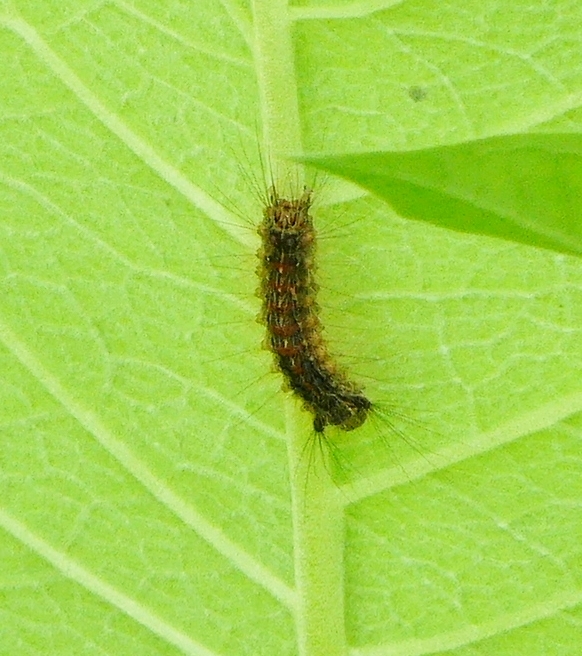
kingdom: Animalia
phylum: Arthropoda
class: Insecta
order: Lepidoptera
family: Erebidae
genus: Lymantria
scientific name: Lymantria dispar
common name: Gypsy moth
